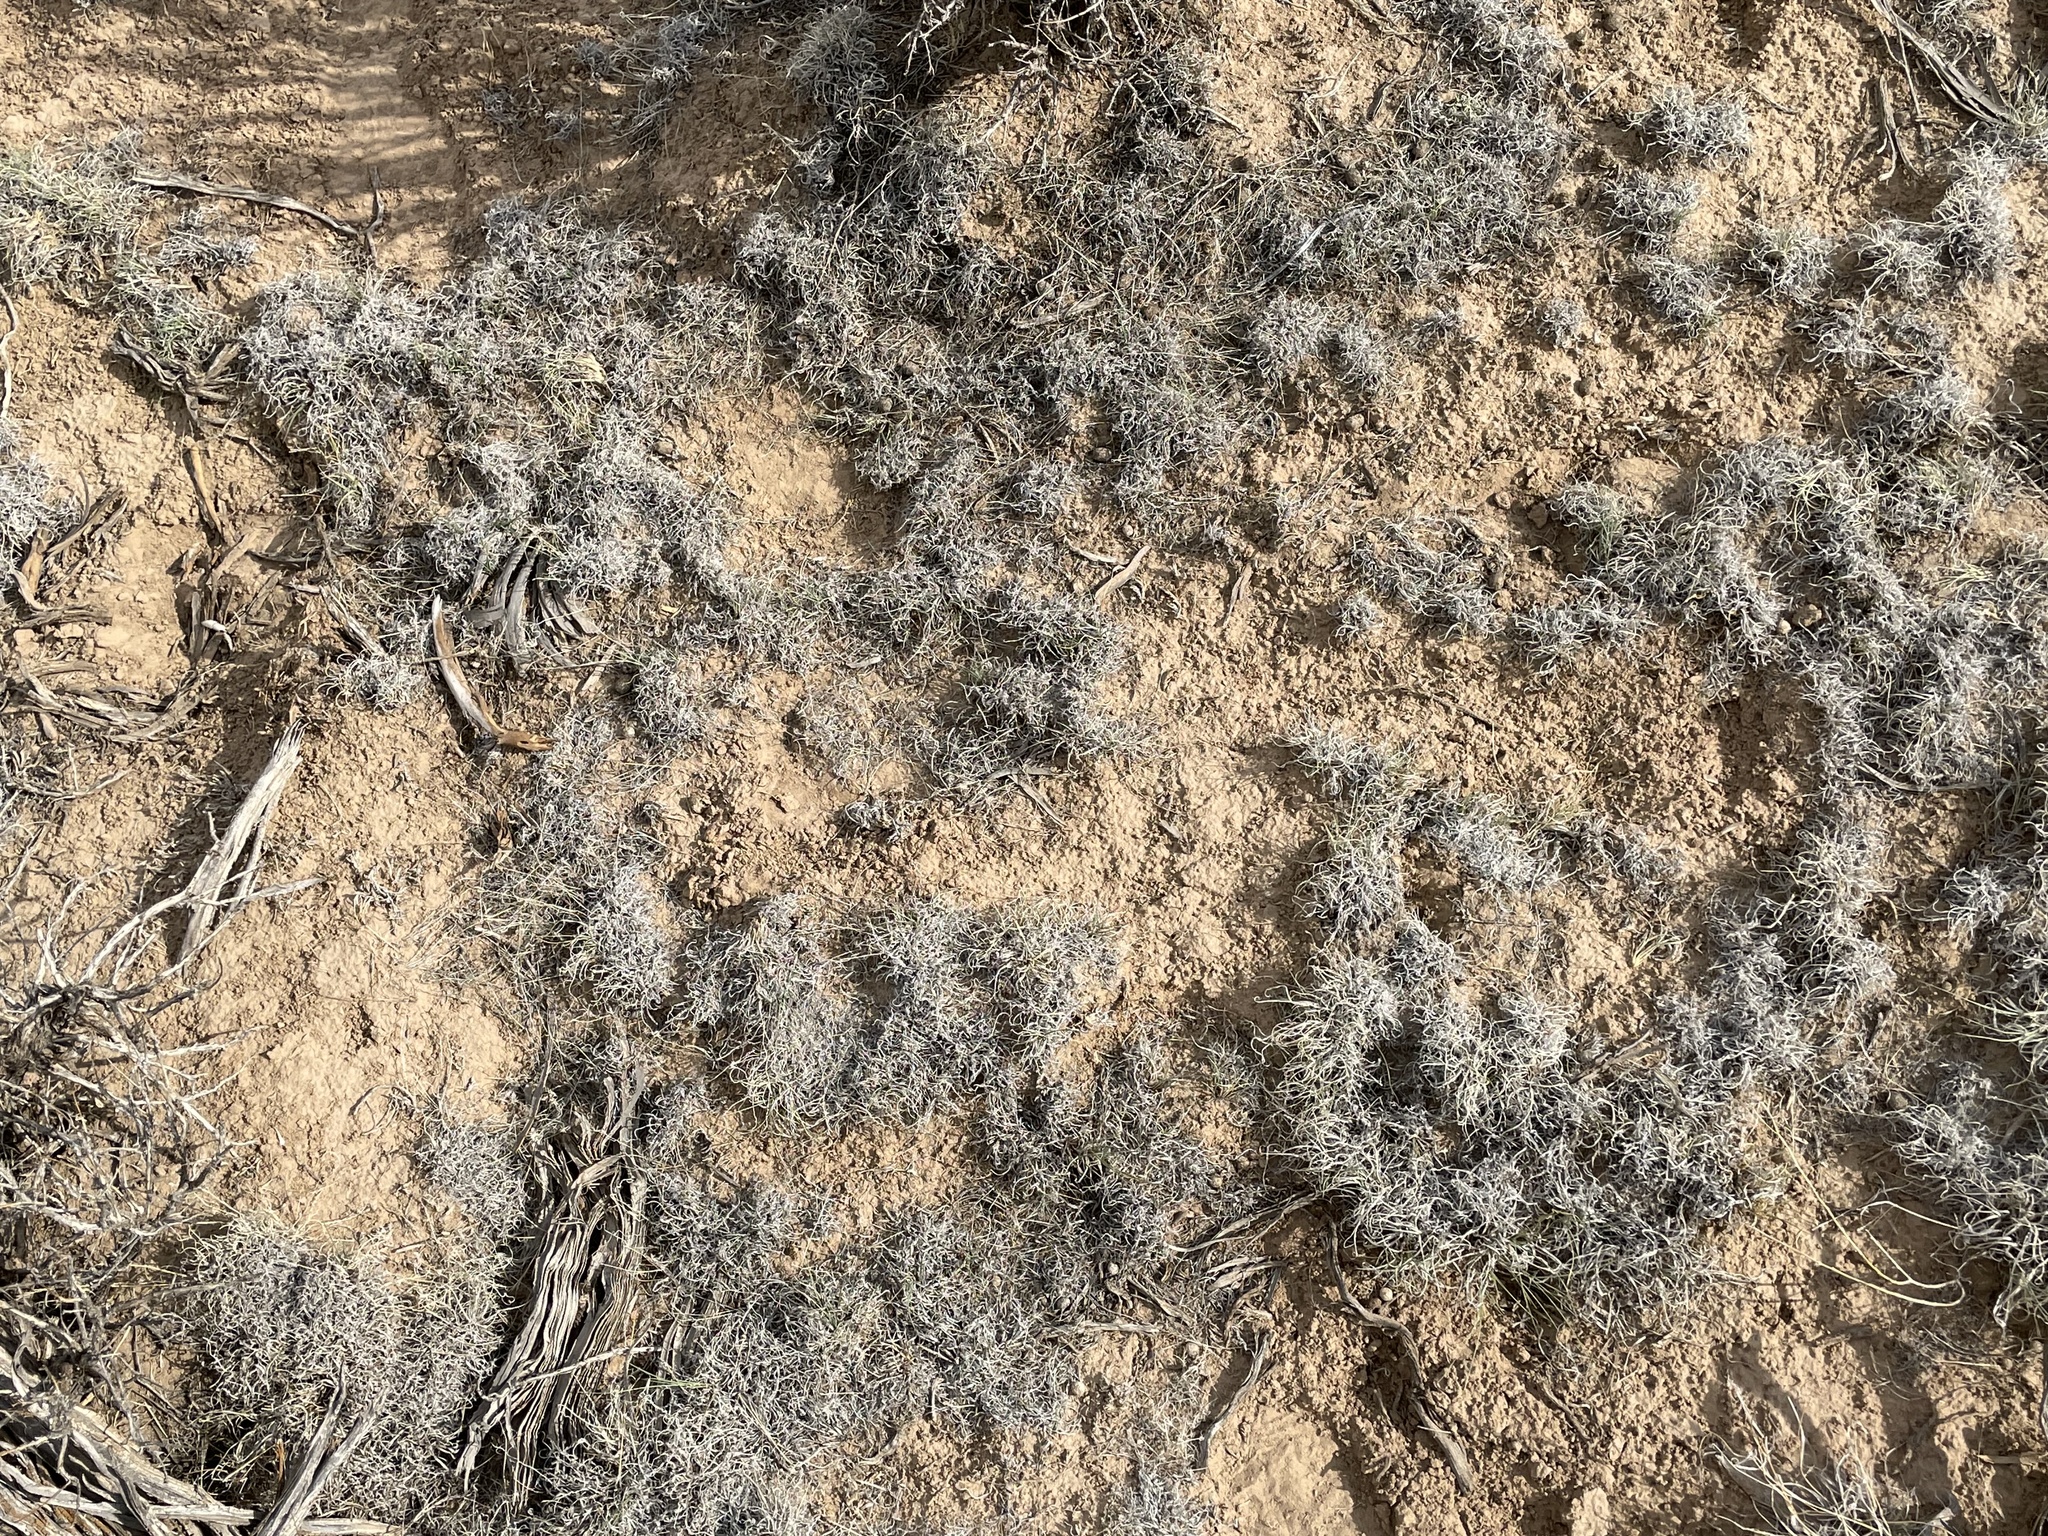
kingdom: Plantae
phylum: Tracheophyta
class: Liliopsida
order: Poales
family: Poaceae
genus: Bouteloua
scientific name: Bouteloua gracilis
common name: Blue grama
